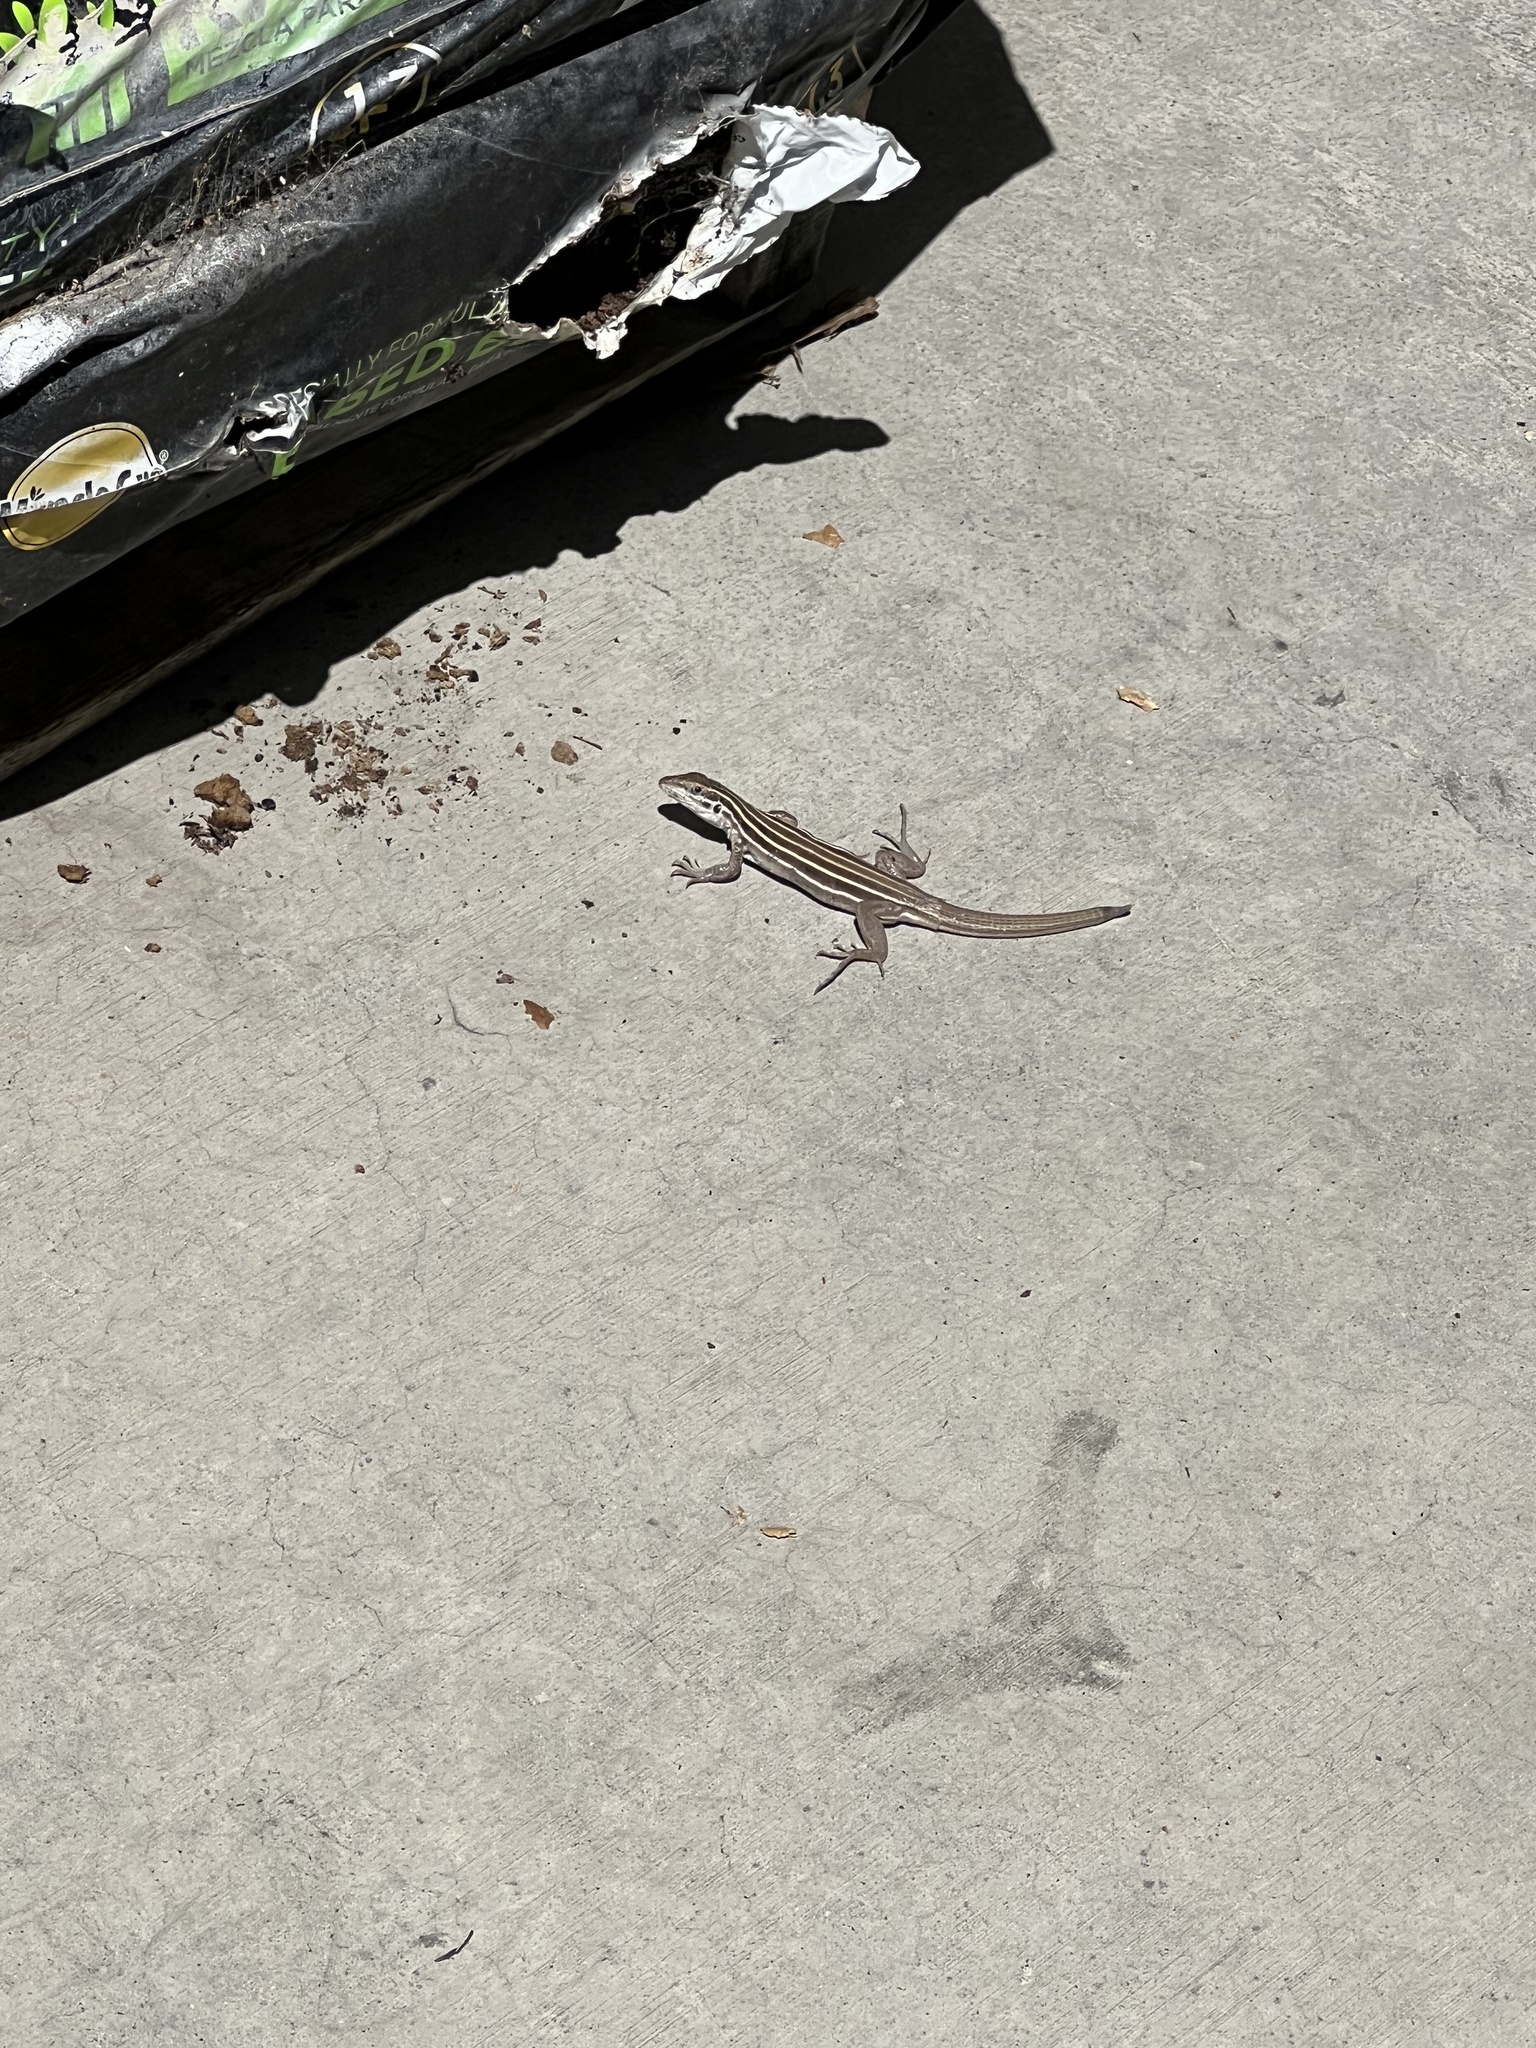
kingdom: Animalia
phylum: Chordata
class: Squamata
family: Teiidae
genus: Aspidoscelis
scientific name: Aspidoscelis uniparens
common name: Desert grassland whiptail
